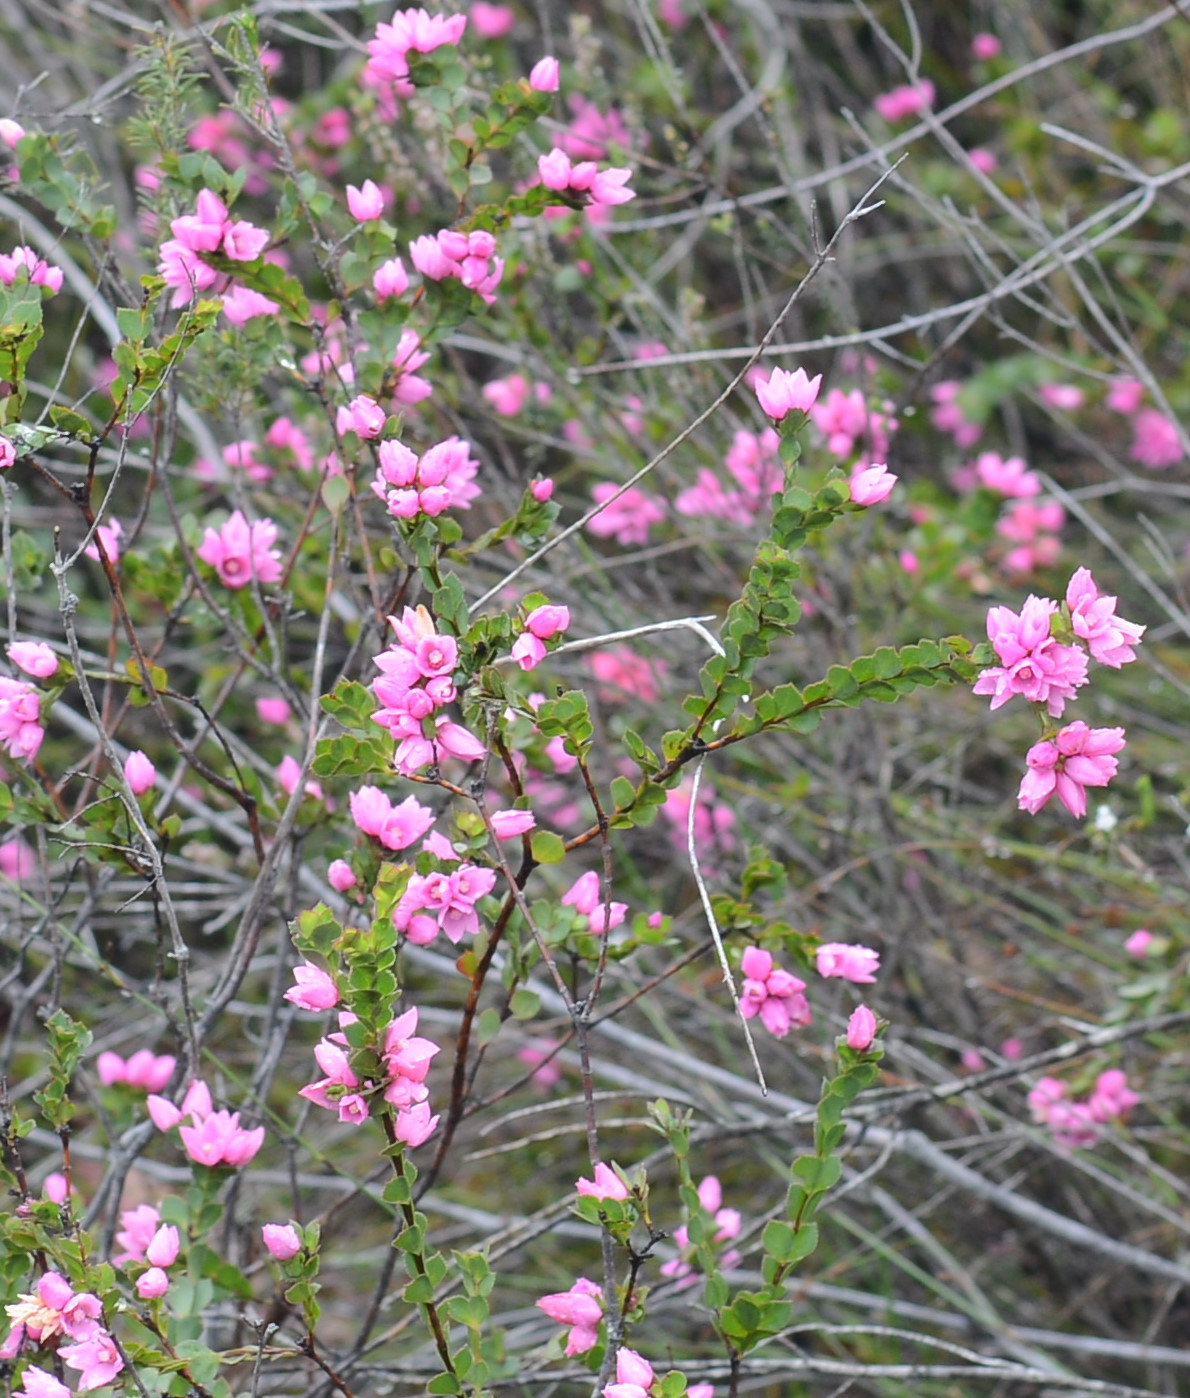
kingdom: Plantae
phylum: Tracheophyta
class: Magnoliopsida
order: Sapindales
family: Rutaceae
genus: Boronia
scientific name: Boronia serrulata
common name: Rose boronia
